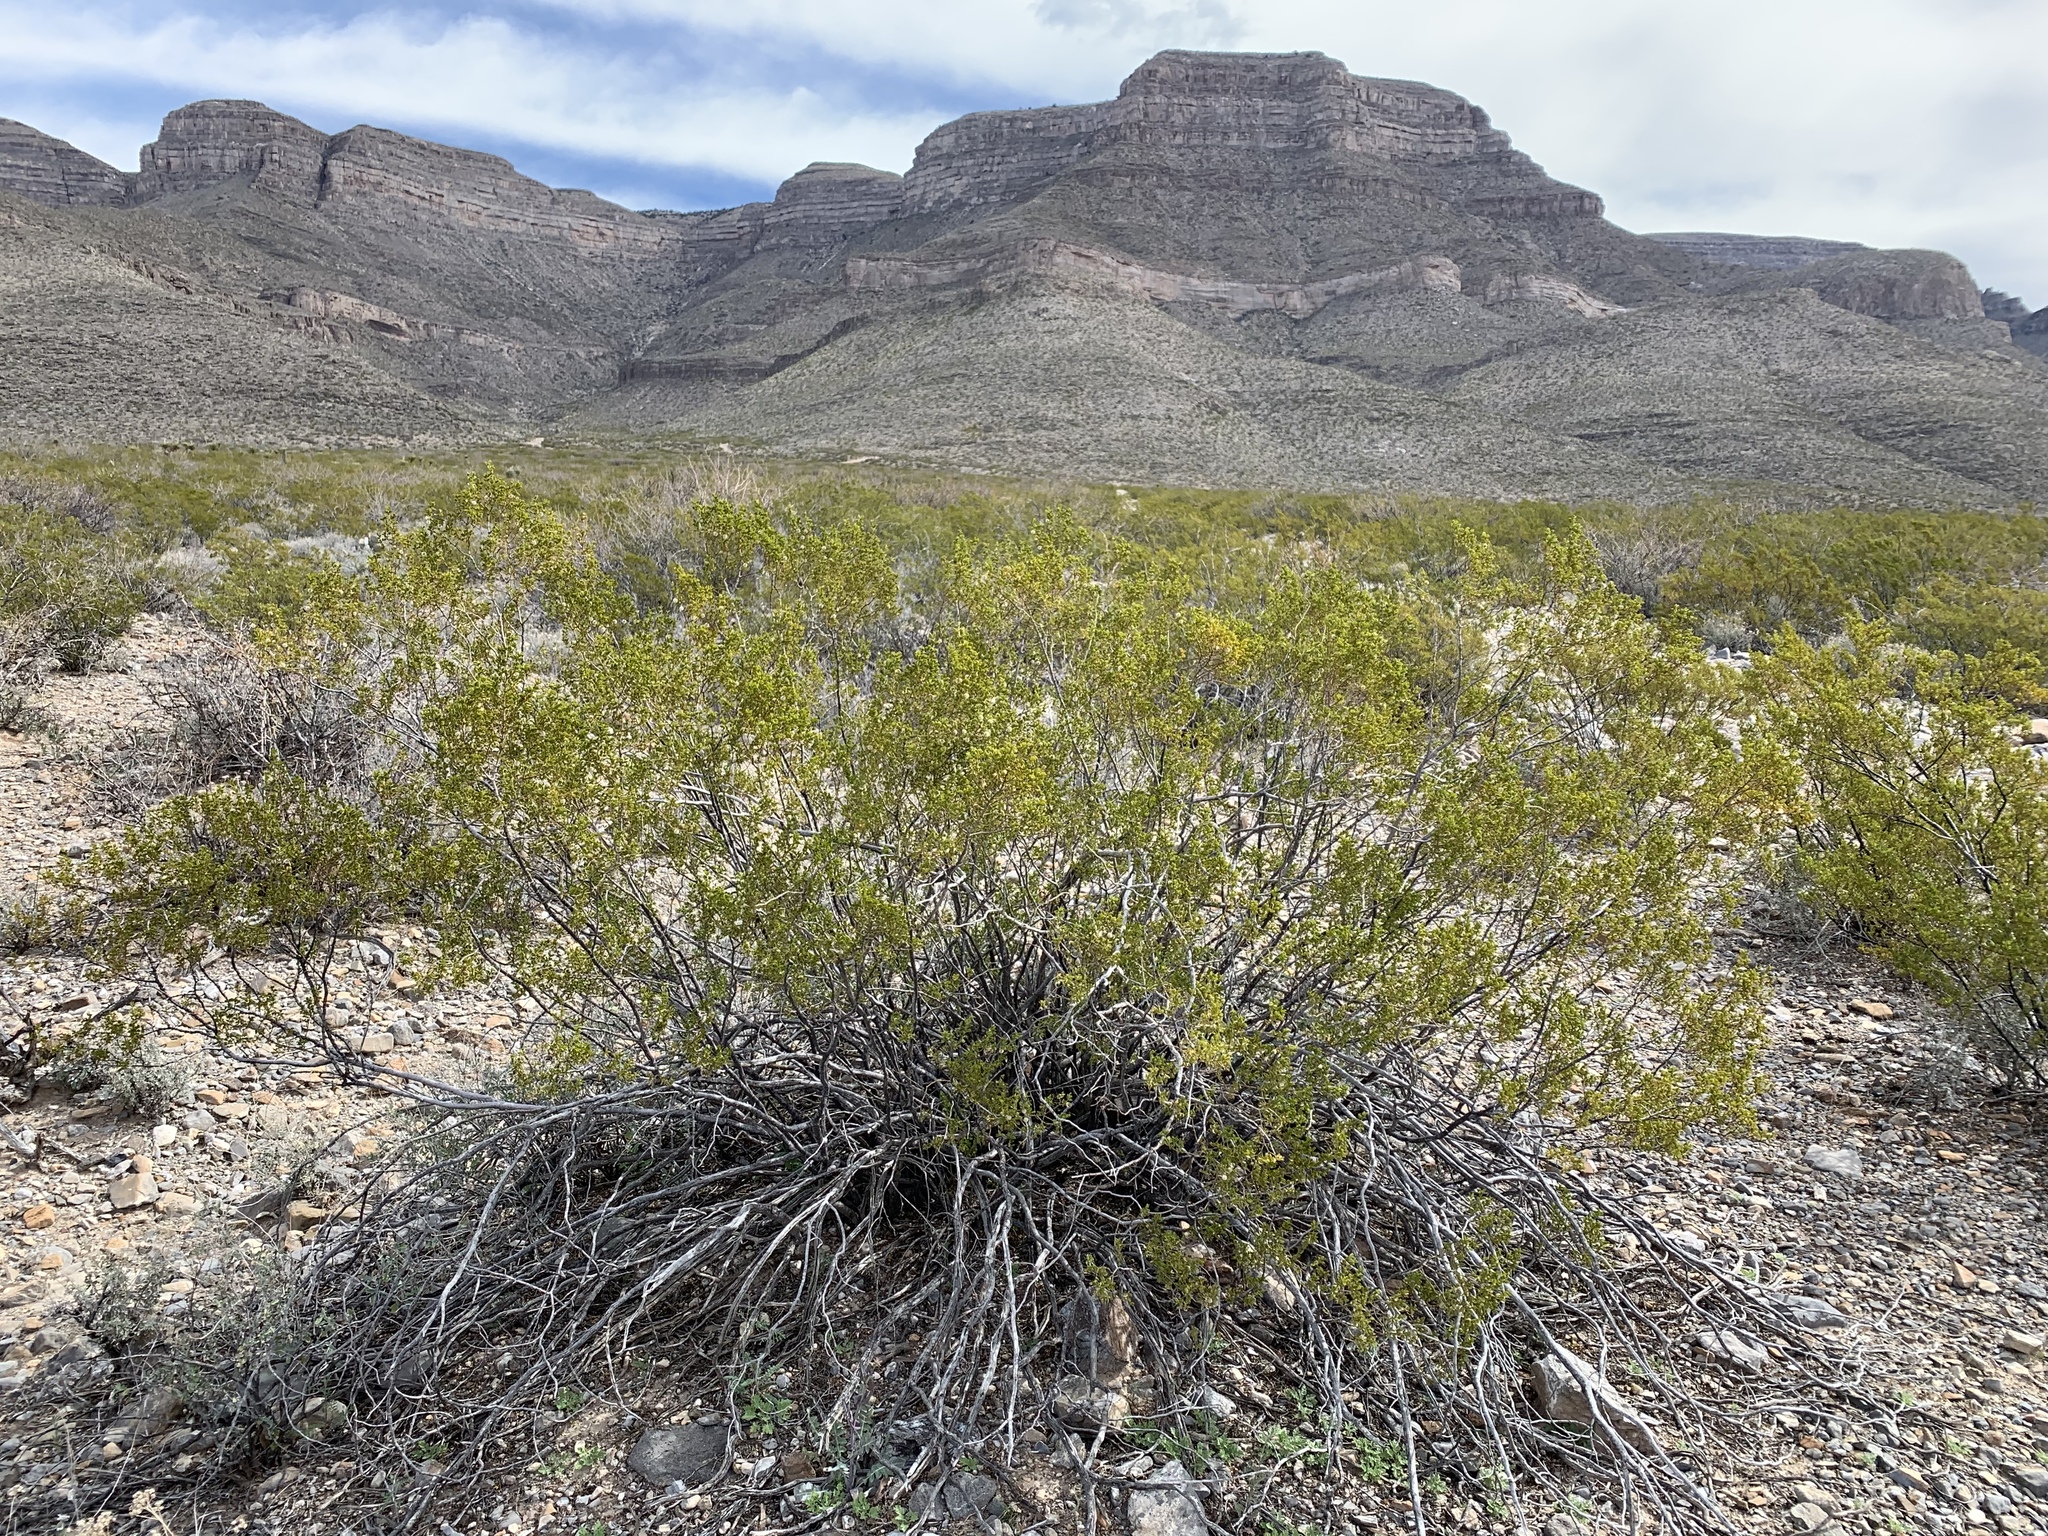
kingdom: Plantae
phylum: Tracheophyta
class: Magnoliopsida
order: Zygophyllales
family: Zygophyllaceae
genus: Larrea
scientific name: Larrea tridentata
